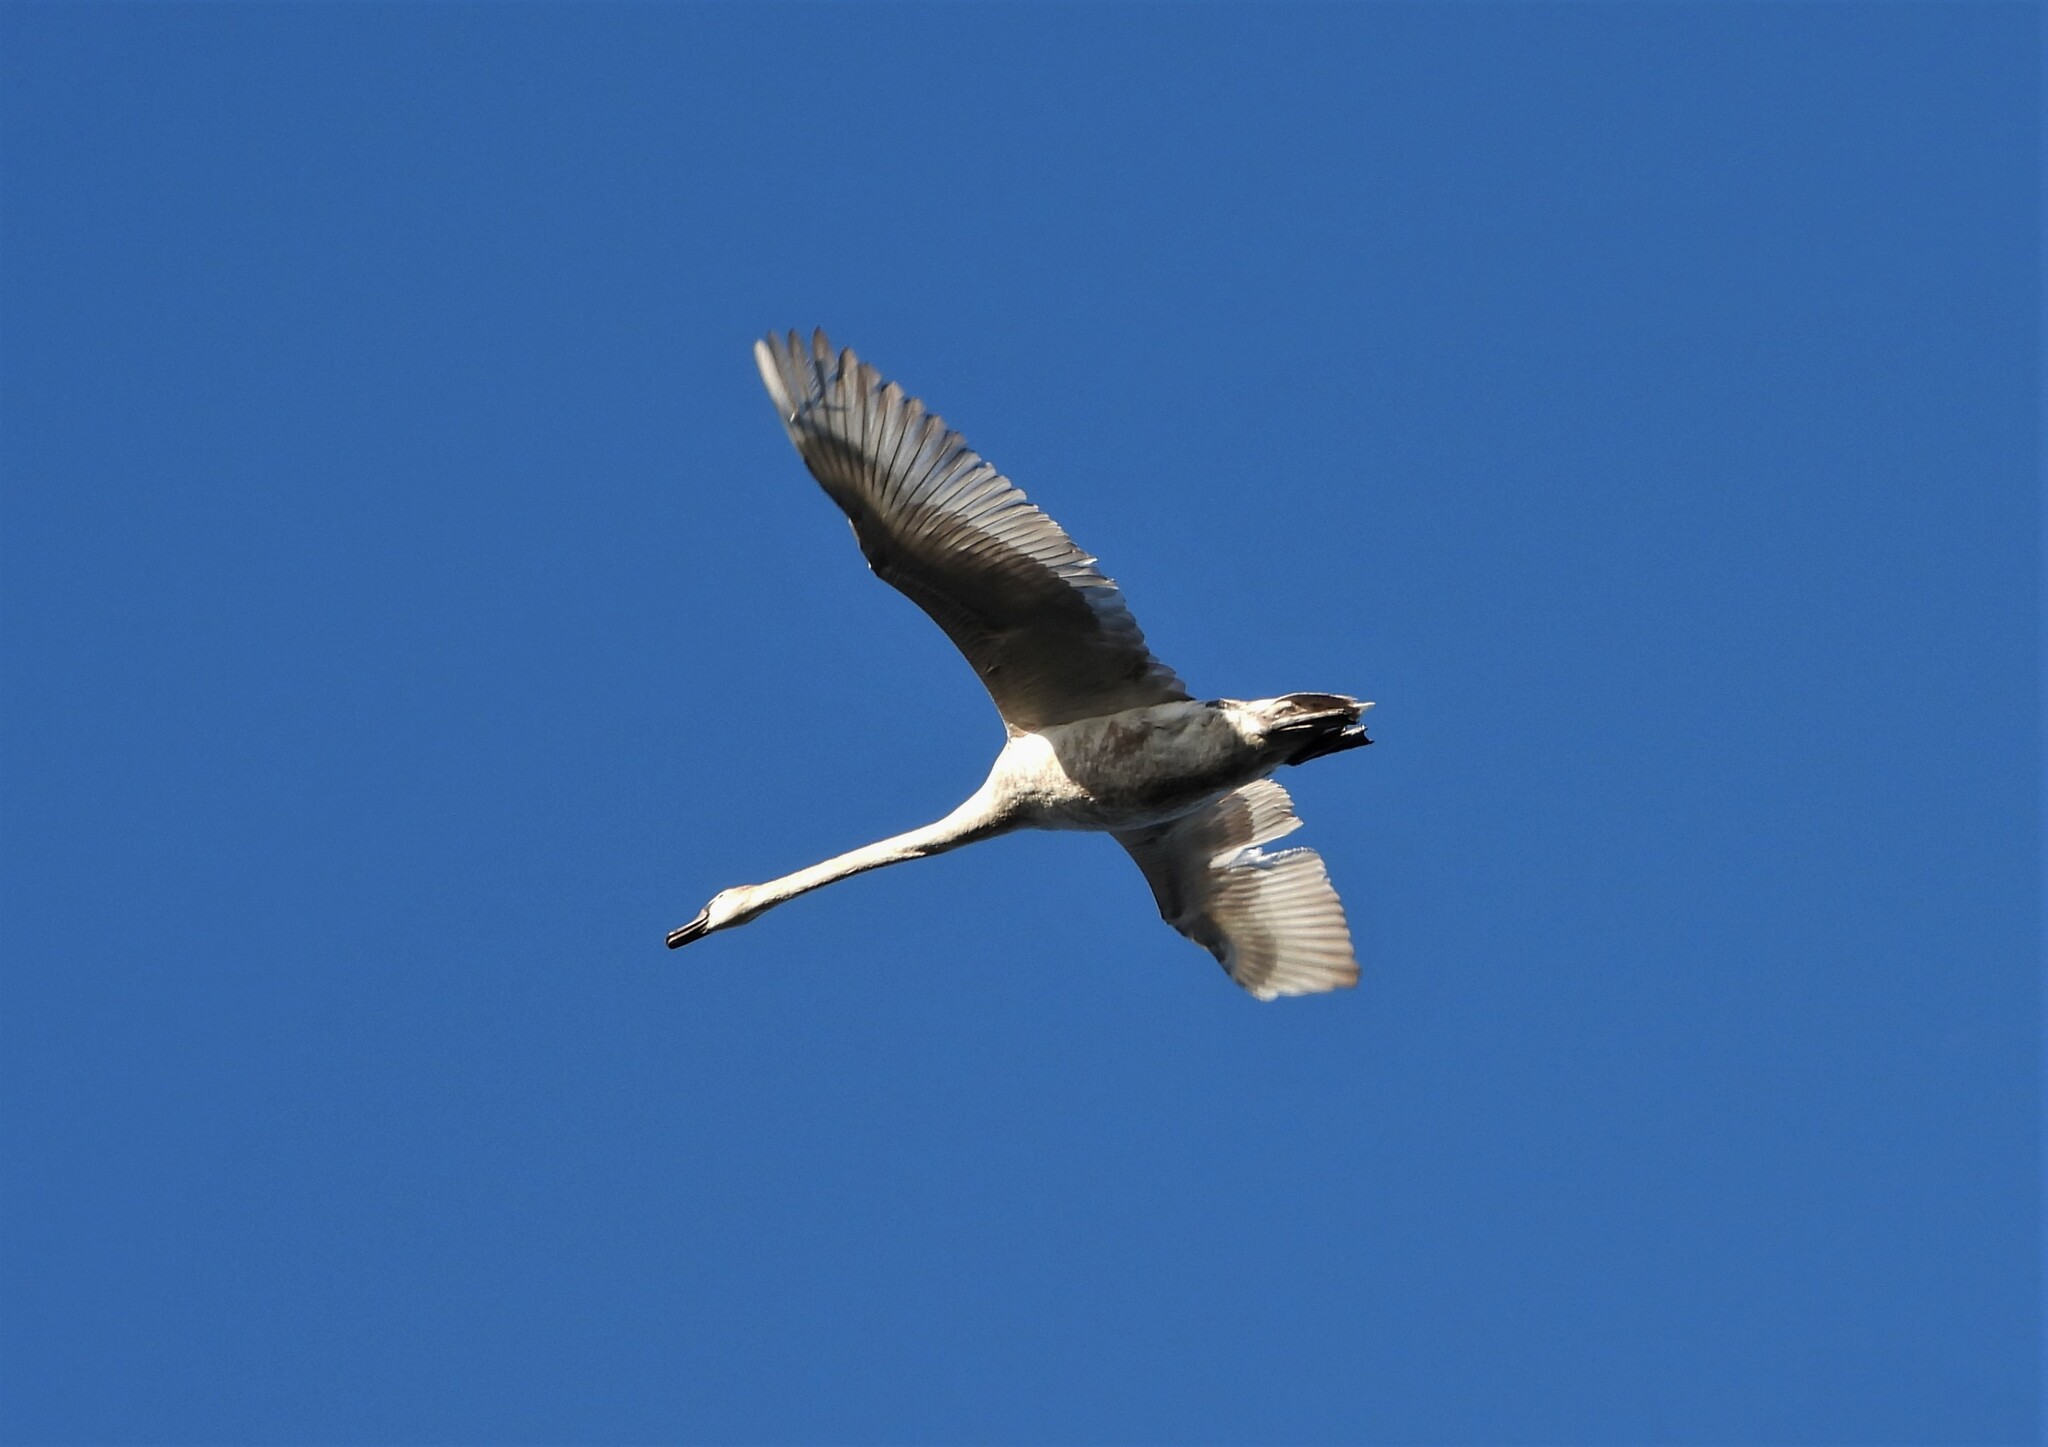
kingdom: Animalia
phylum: Chordata
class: Aves
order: Anseriformes
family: Anatidae
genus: Cygnus
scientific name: Cygnus olor
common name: Mute swan
